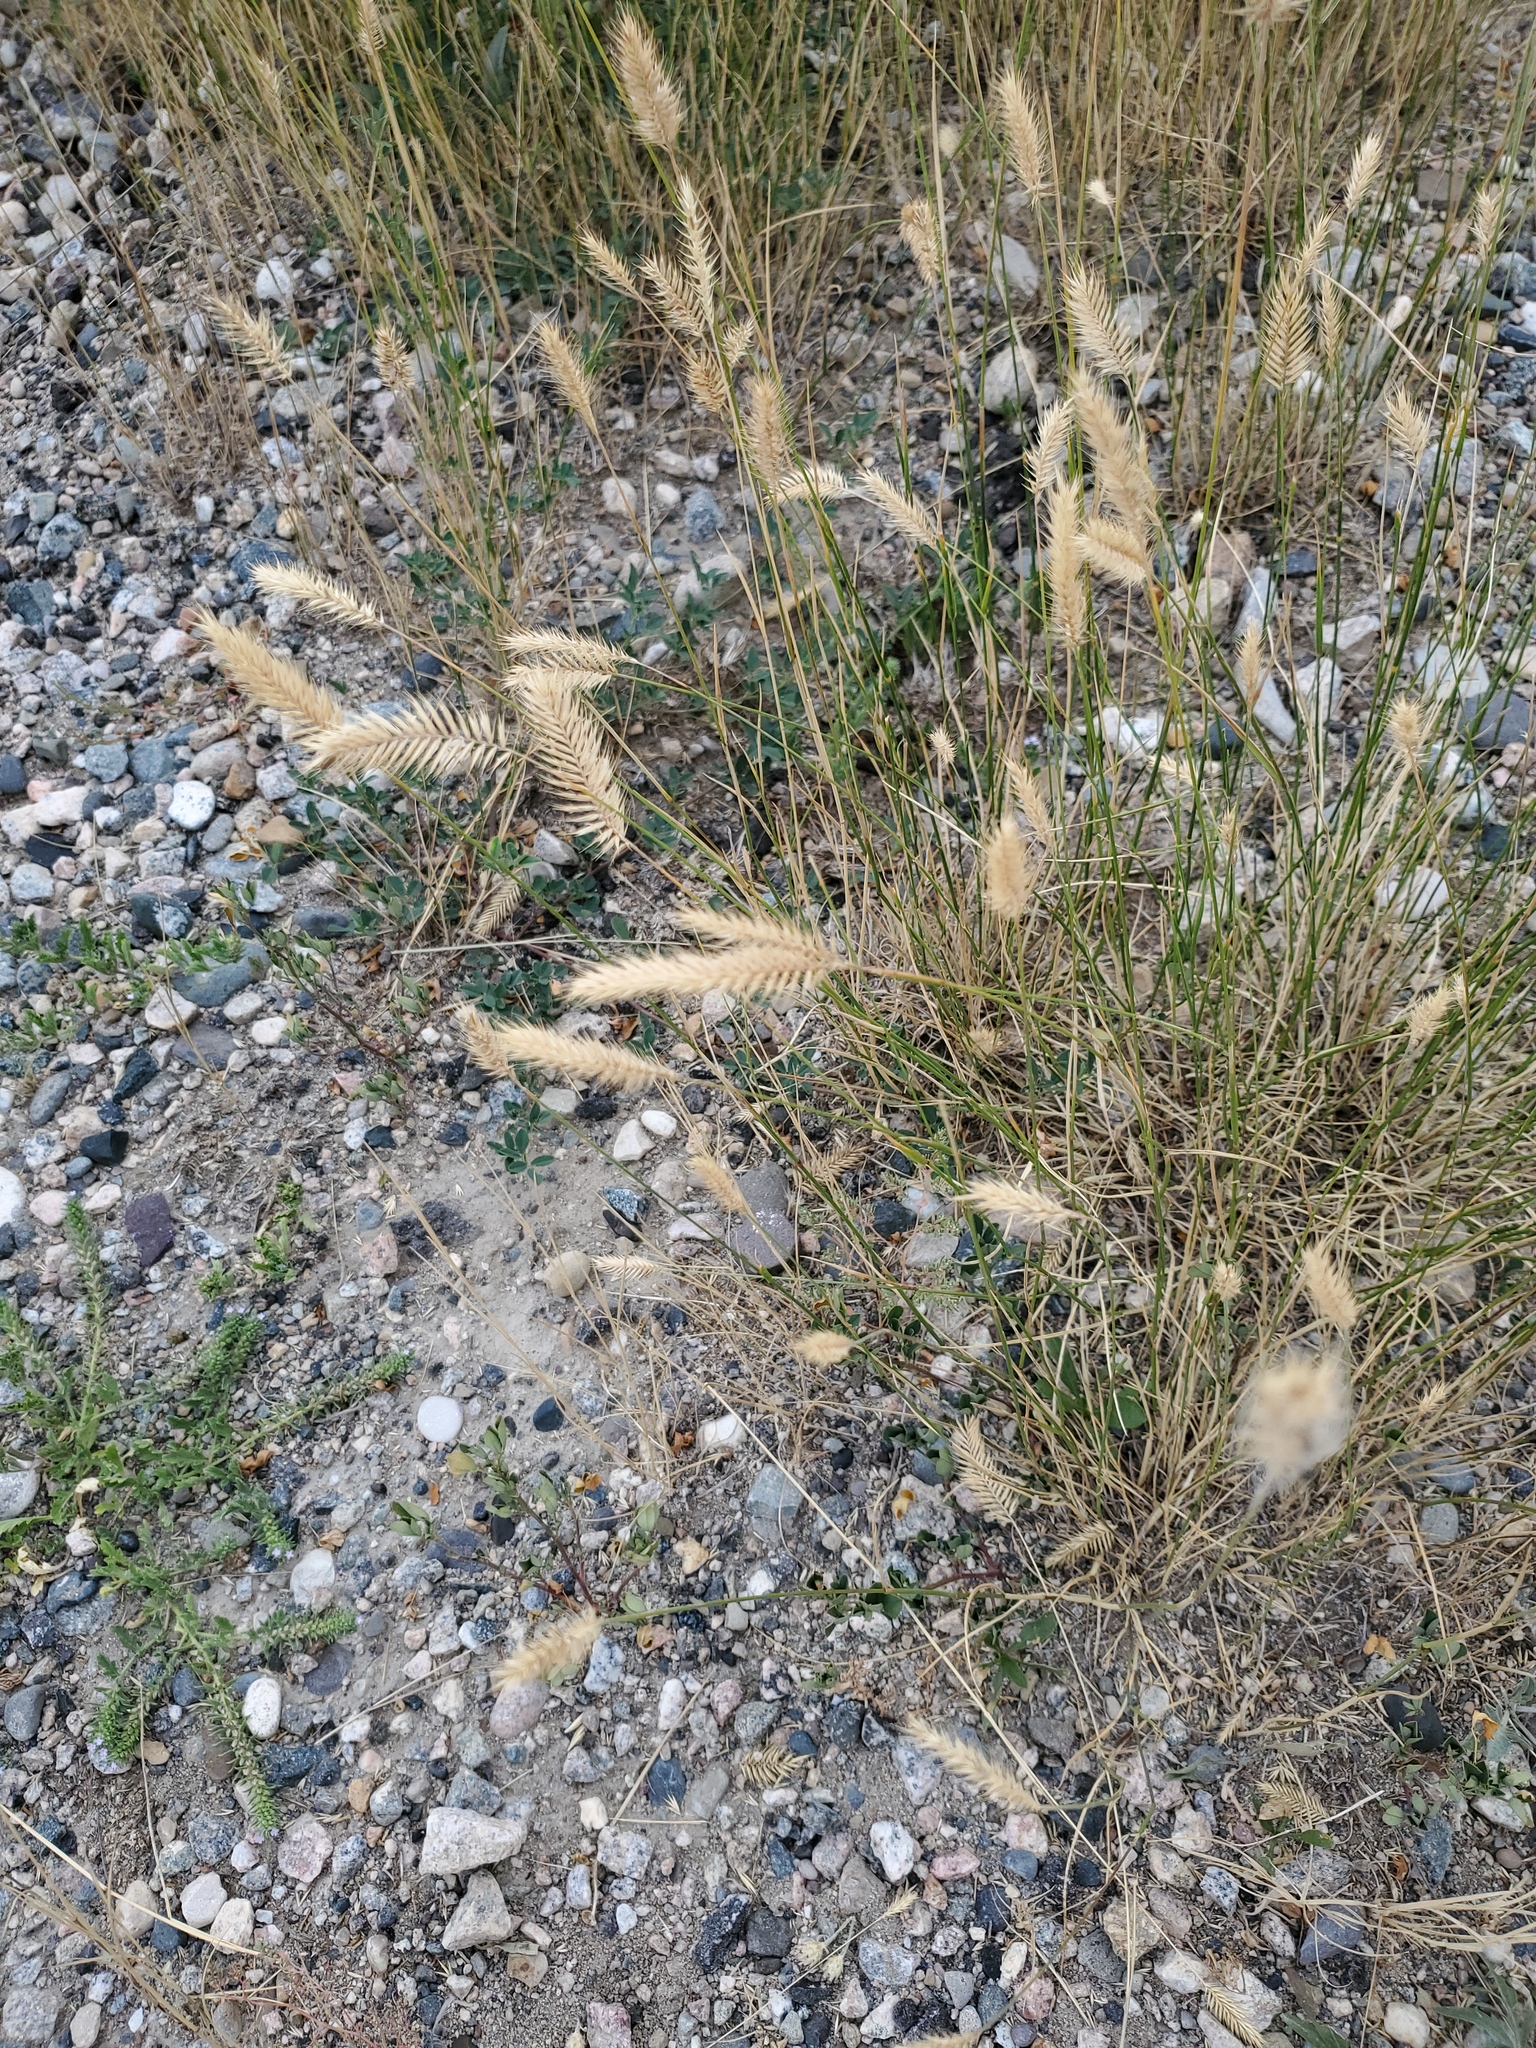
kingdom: Plantae
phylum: Tracheophyta
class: Liliopsida
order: Poales
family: Poaceae
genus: Agropyron
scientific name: Agropyron cristatum
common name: Crested wheatgrass
